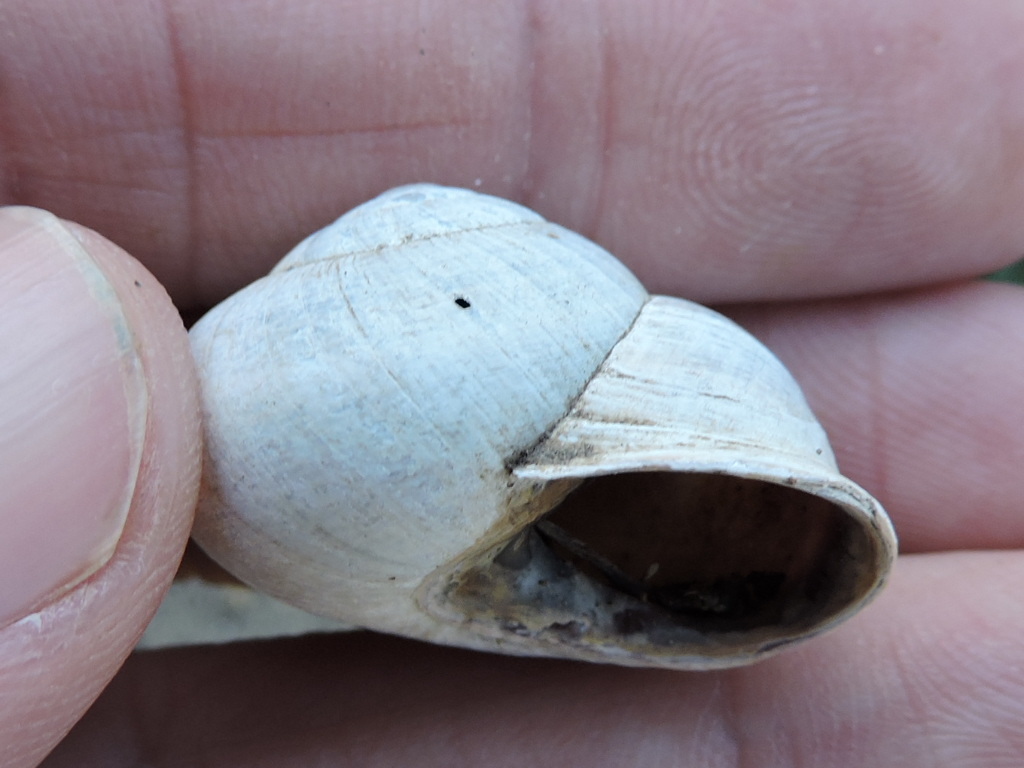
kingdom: Animalia
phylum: Mollusca
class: Gastropoda
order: Stylommatophora
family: Helicidae
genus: Otala
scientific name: Otala lactea
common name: Milk snail
